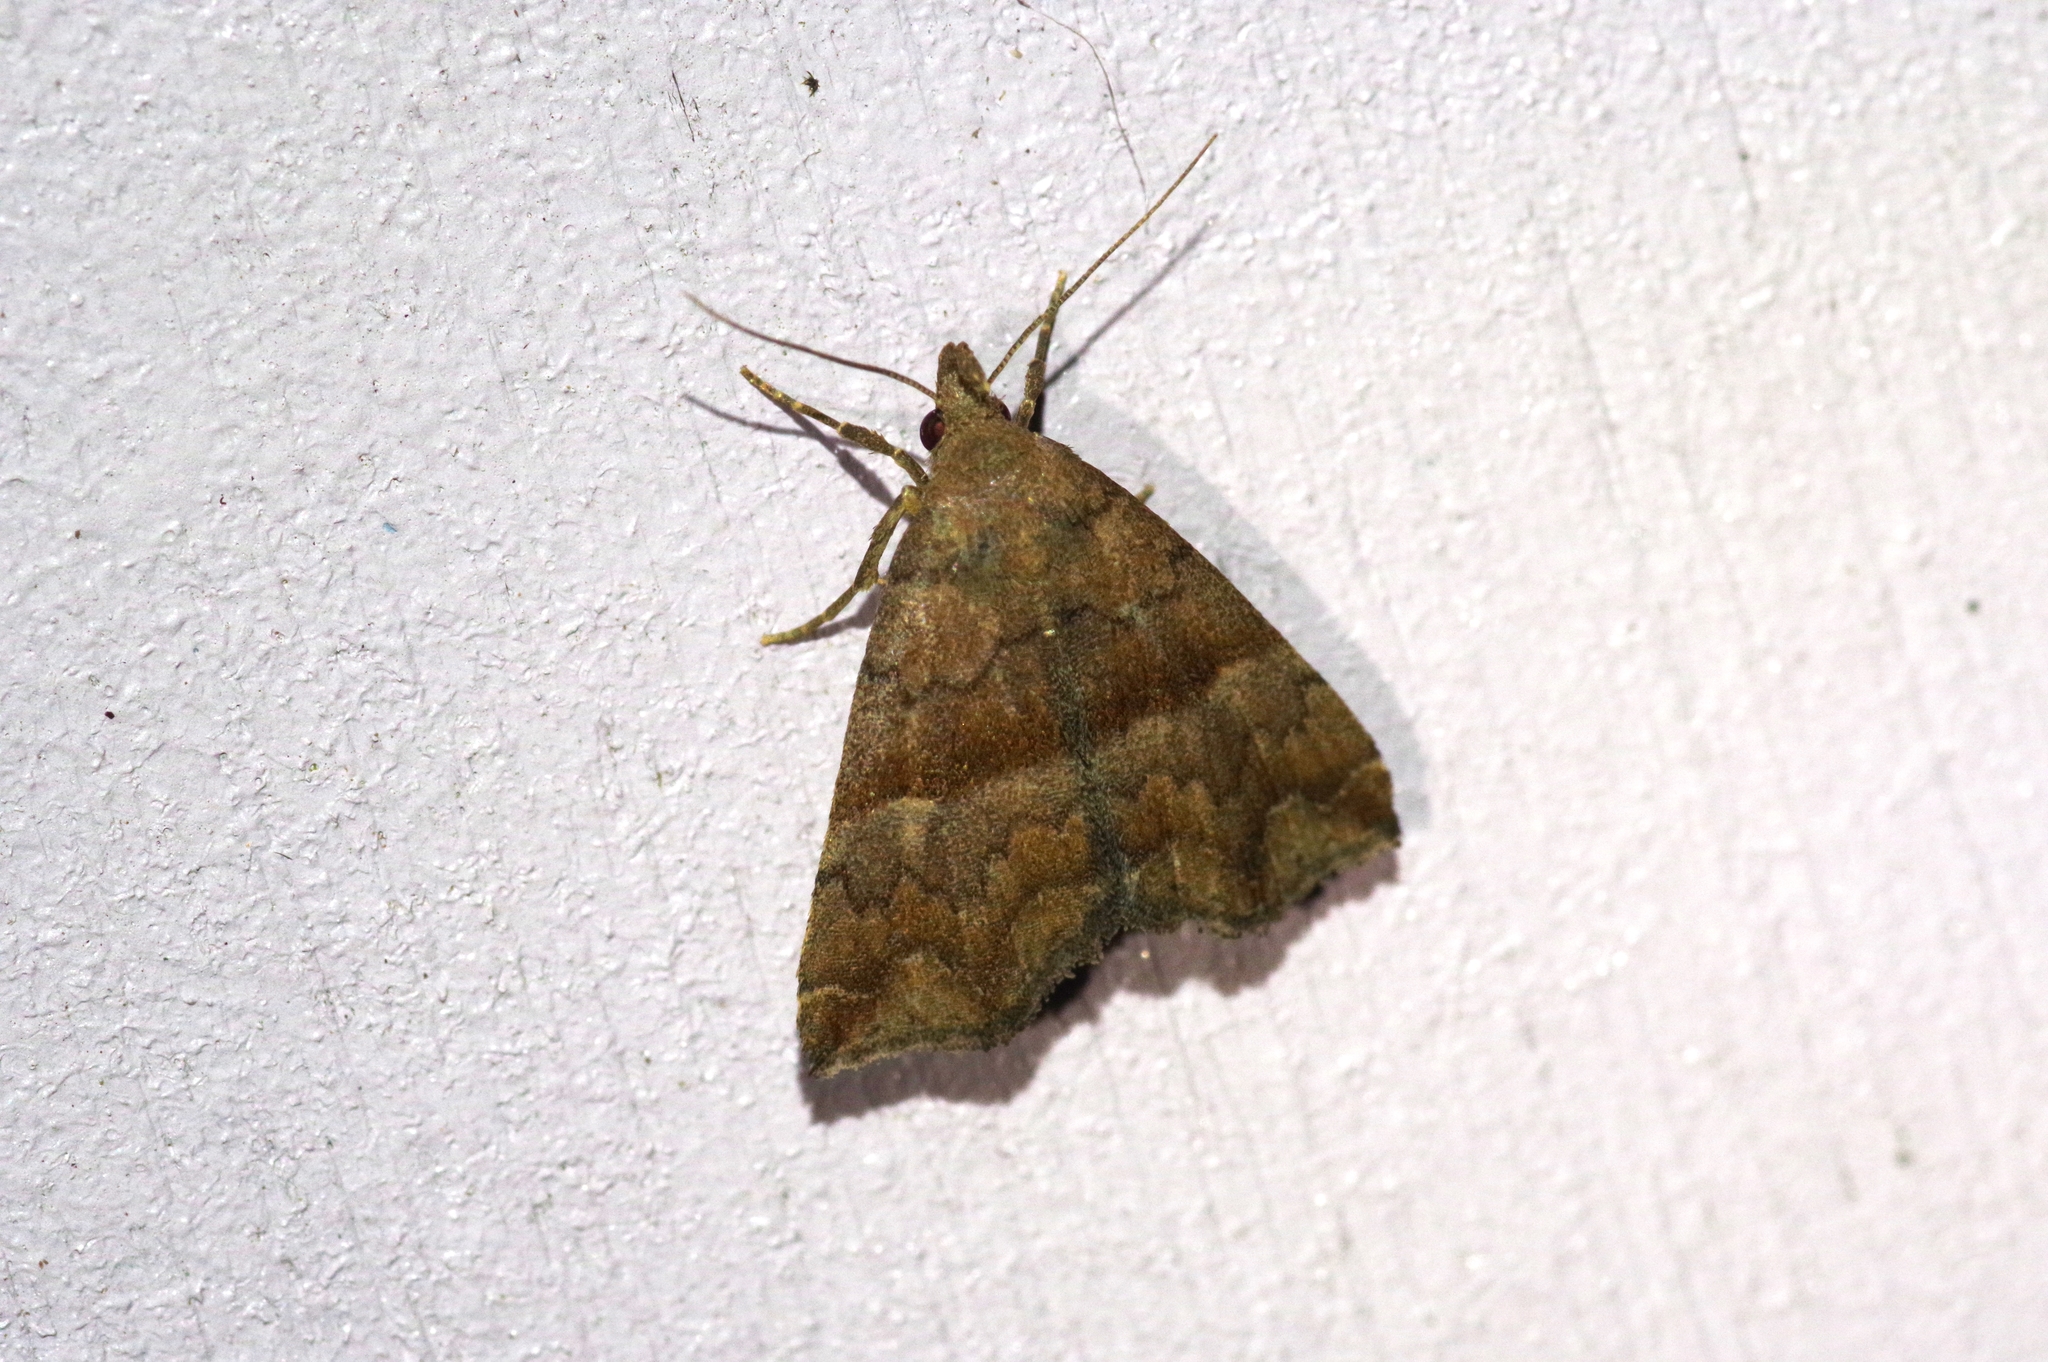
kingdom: Animalia
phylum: Arthropoda
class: Insecta
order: Lepidoptera
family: Erebidae
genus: Polypogon
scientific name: Polypogon Hipoepa fractalis
